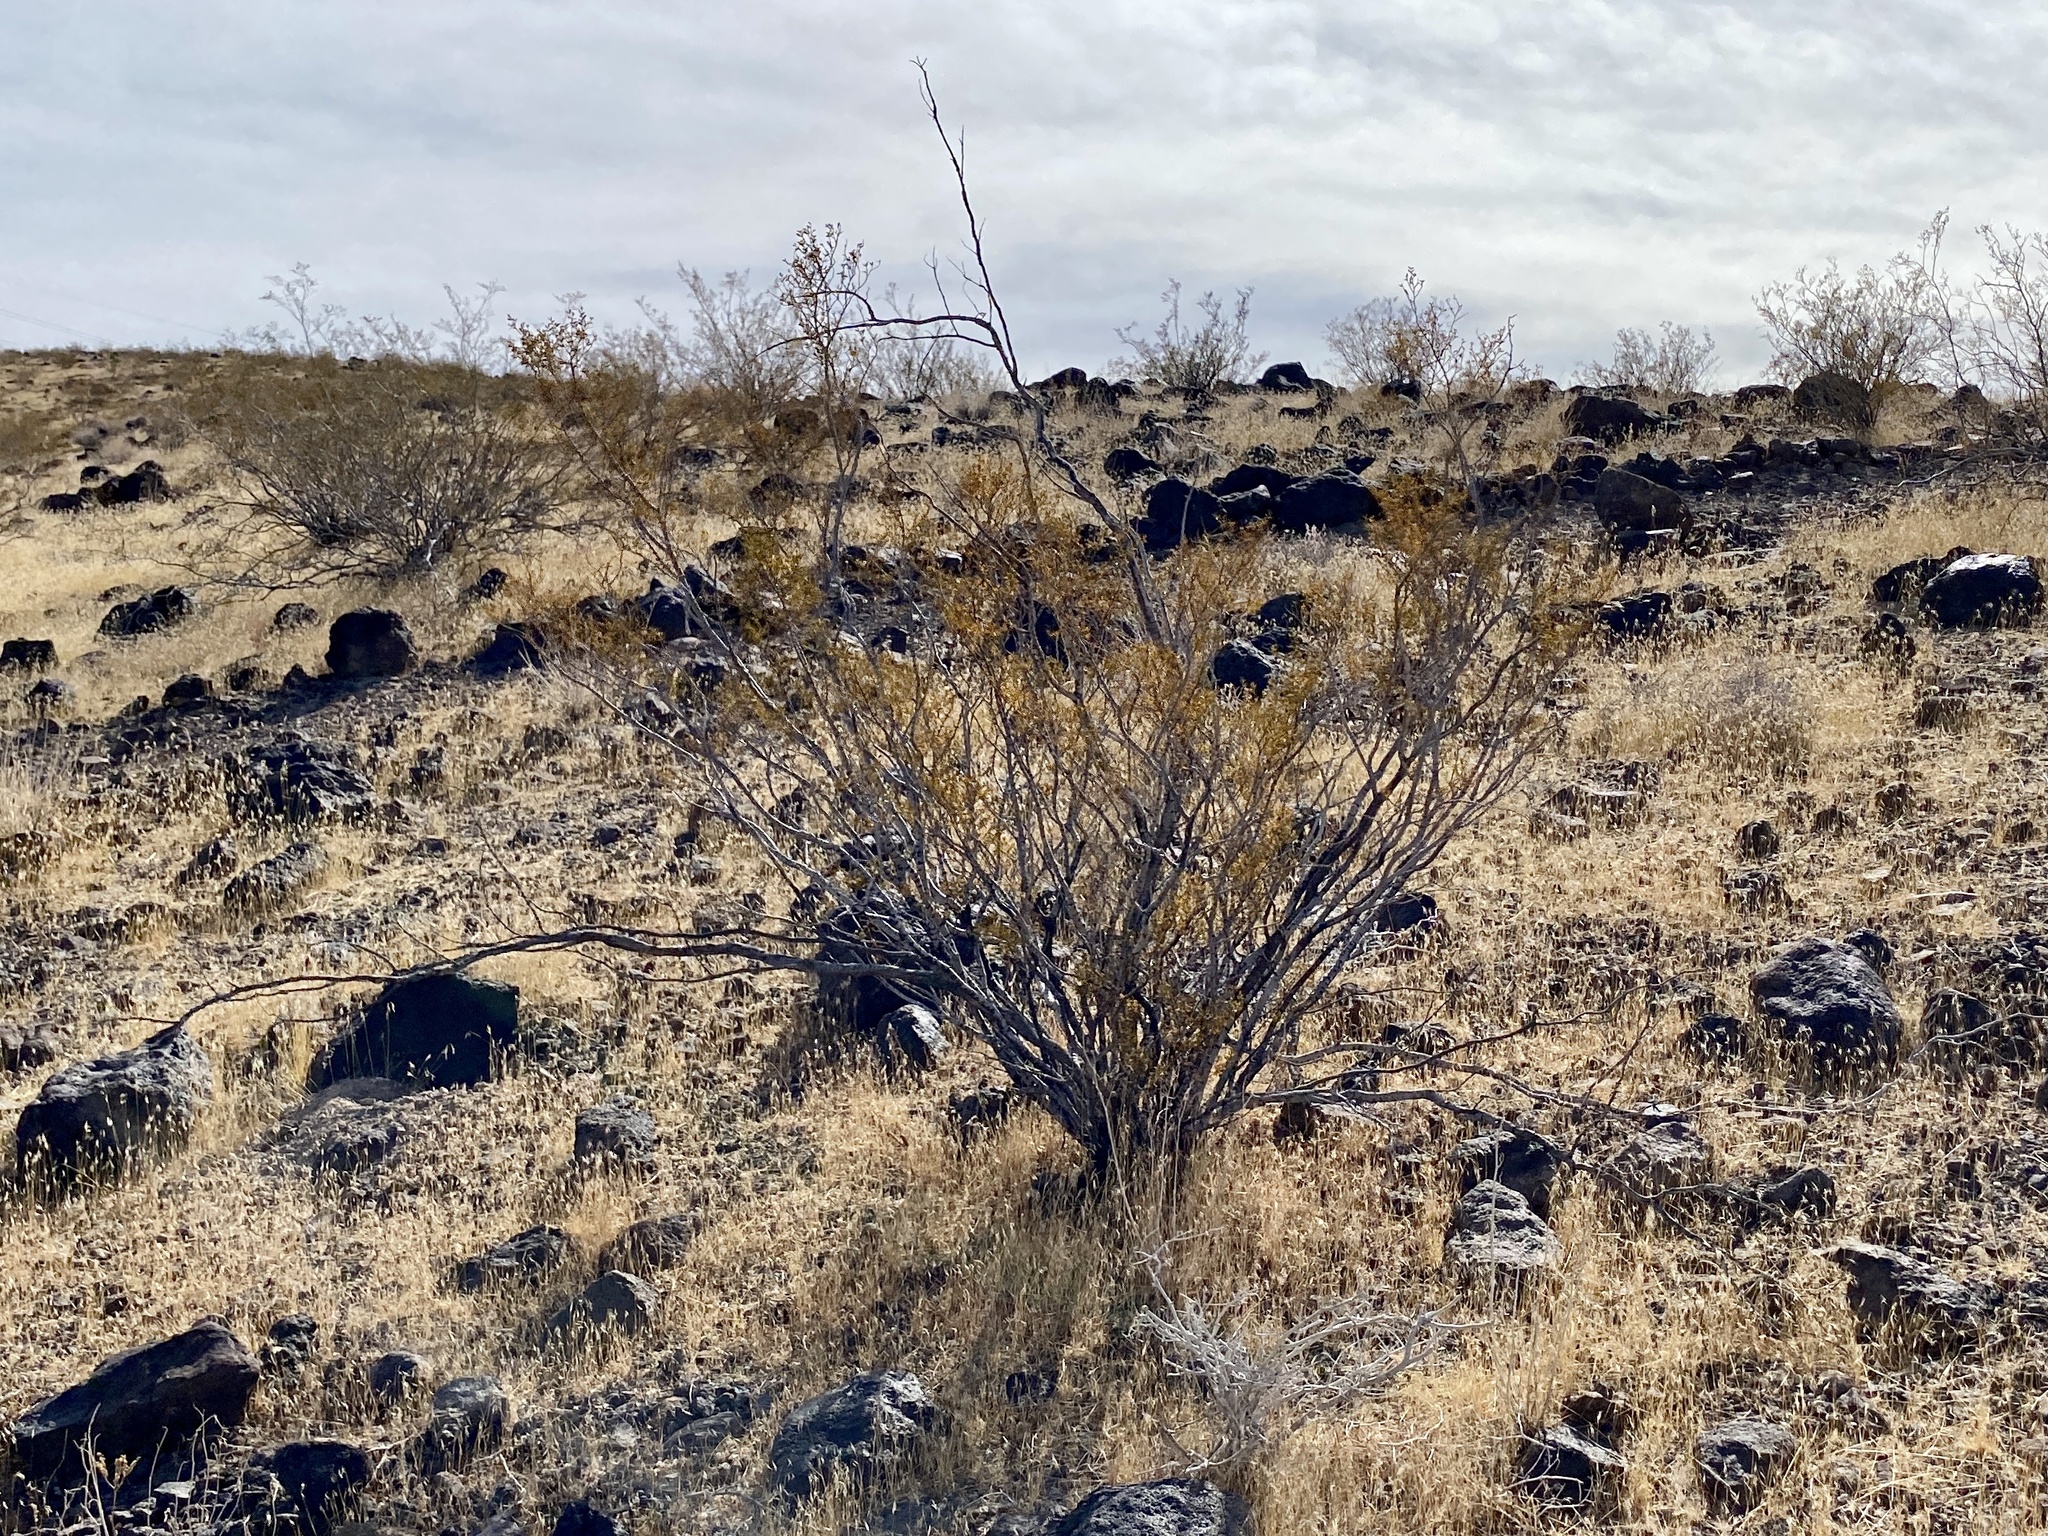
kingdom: Plantae
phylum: Tracheophyta
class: Magnoliopsida
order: Zygophyllales
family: Zygophyllaceae
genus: Larrea
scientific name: Larrea tridentata
